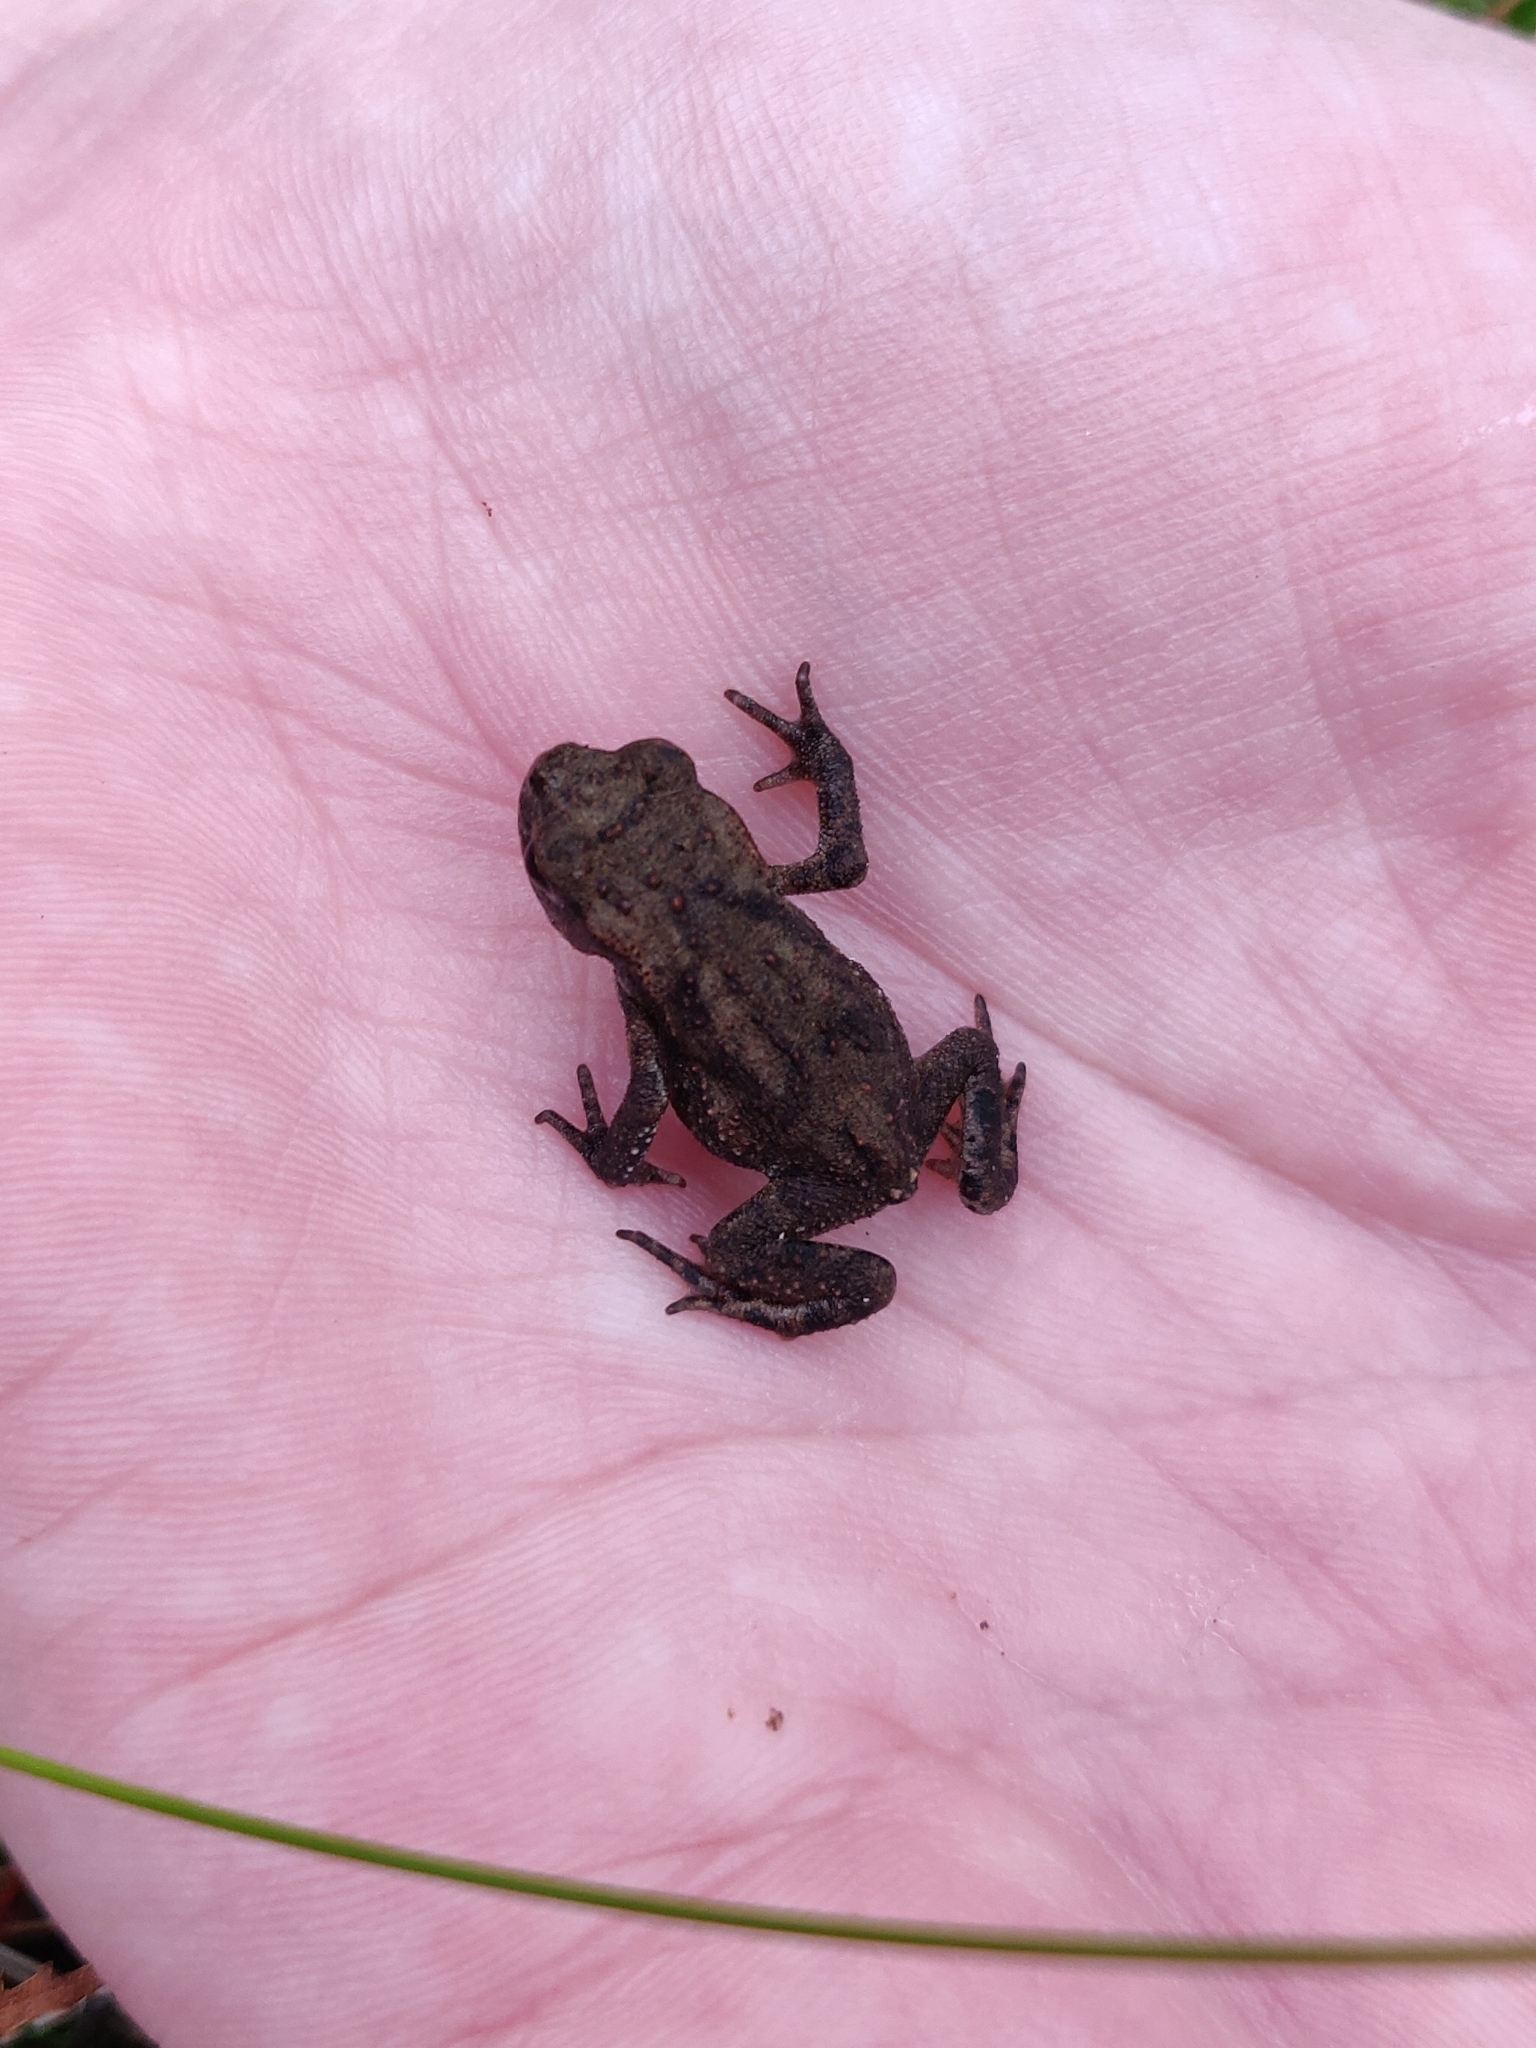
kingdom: Animalia
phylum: Chordata
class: Amphibia
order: Anura
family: Bufonidae
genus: Bufo
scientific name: Bufo bufo
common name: Common toad
